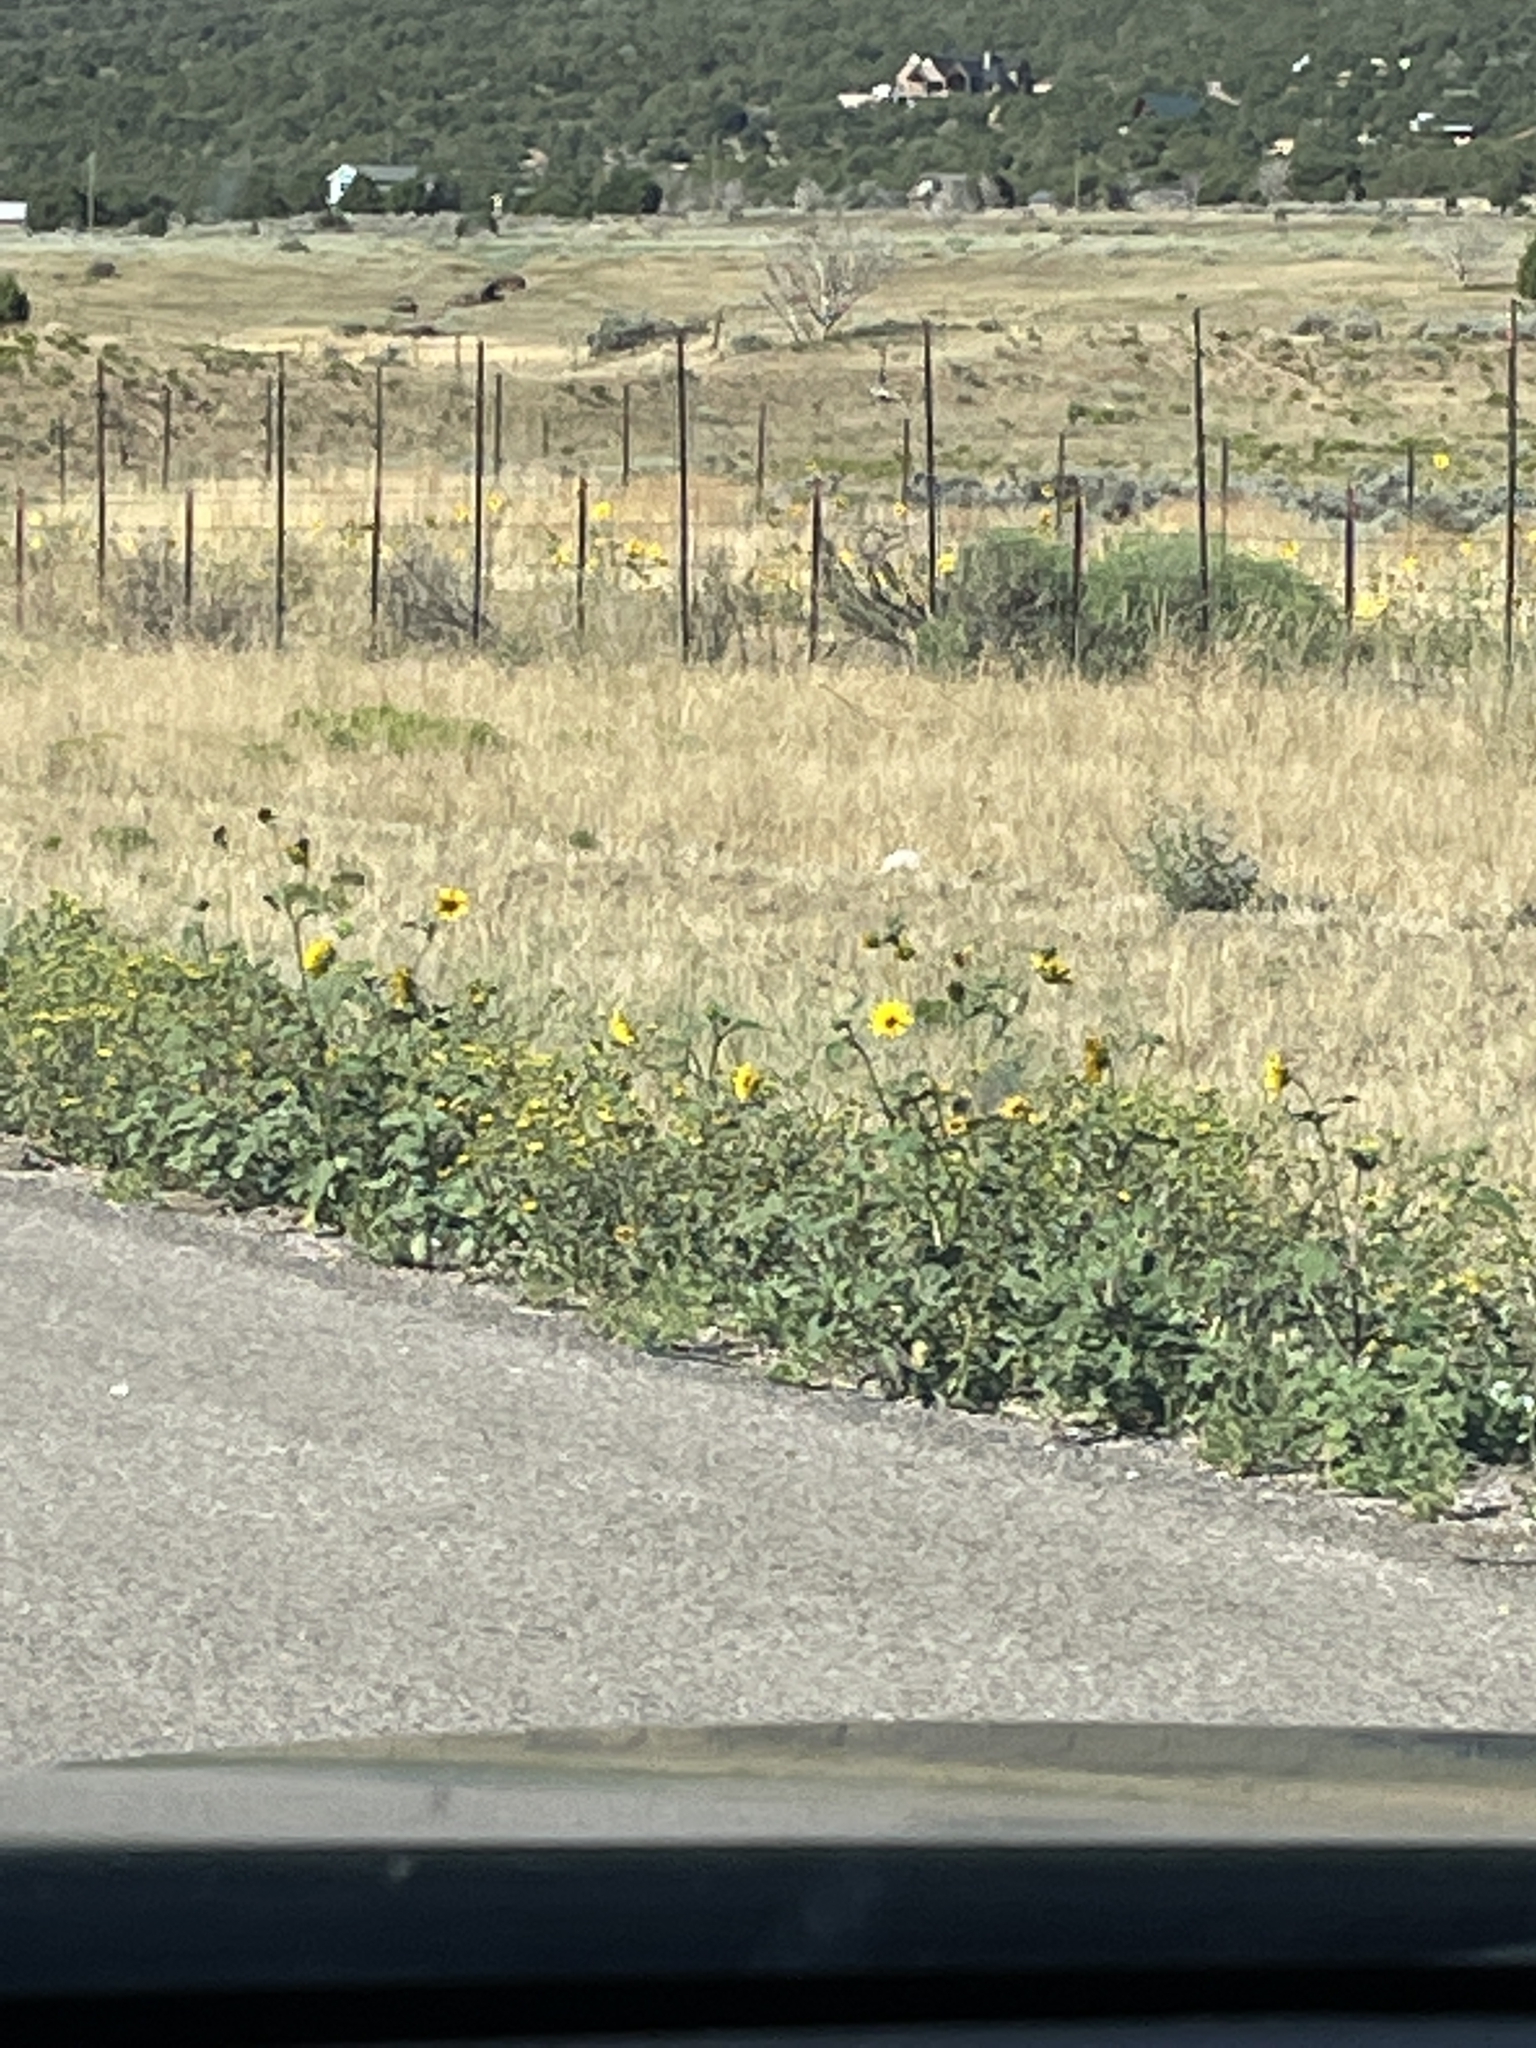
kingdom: Plantae
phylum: Tracheophyta
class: Magnoliopsida
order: Asterales
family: Asteraceae
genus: Helianthus
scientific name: Helianthus annuus
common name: Sunflower
